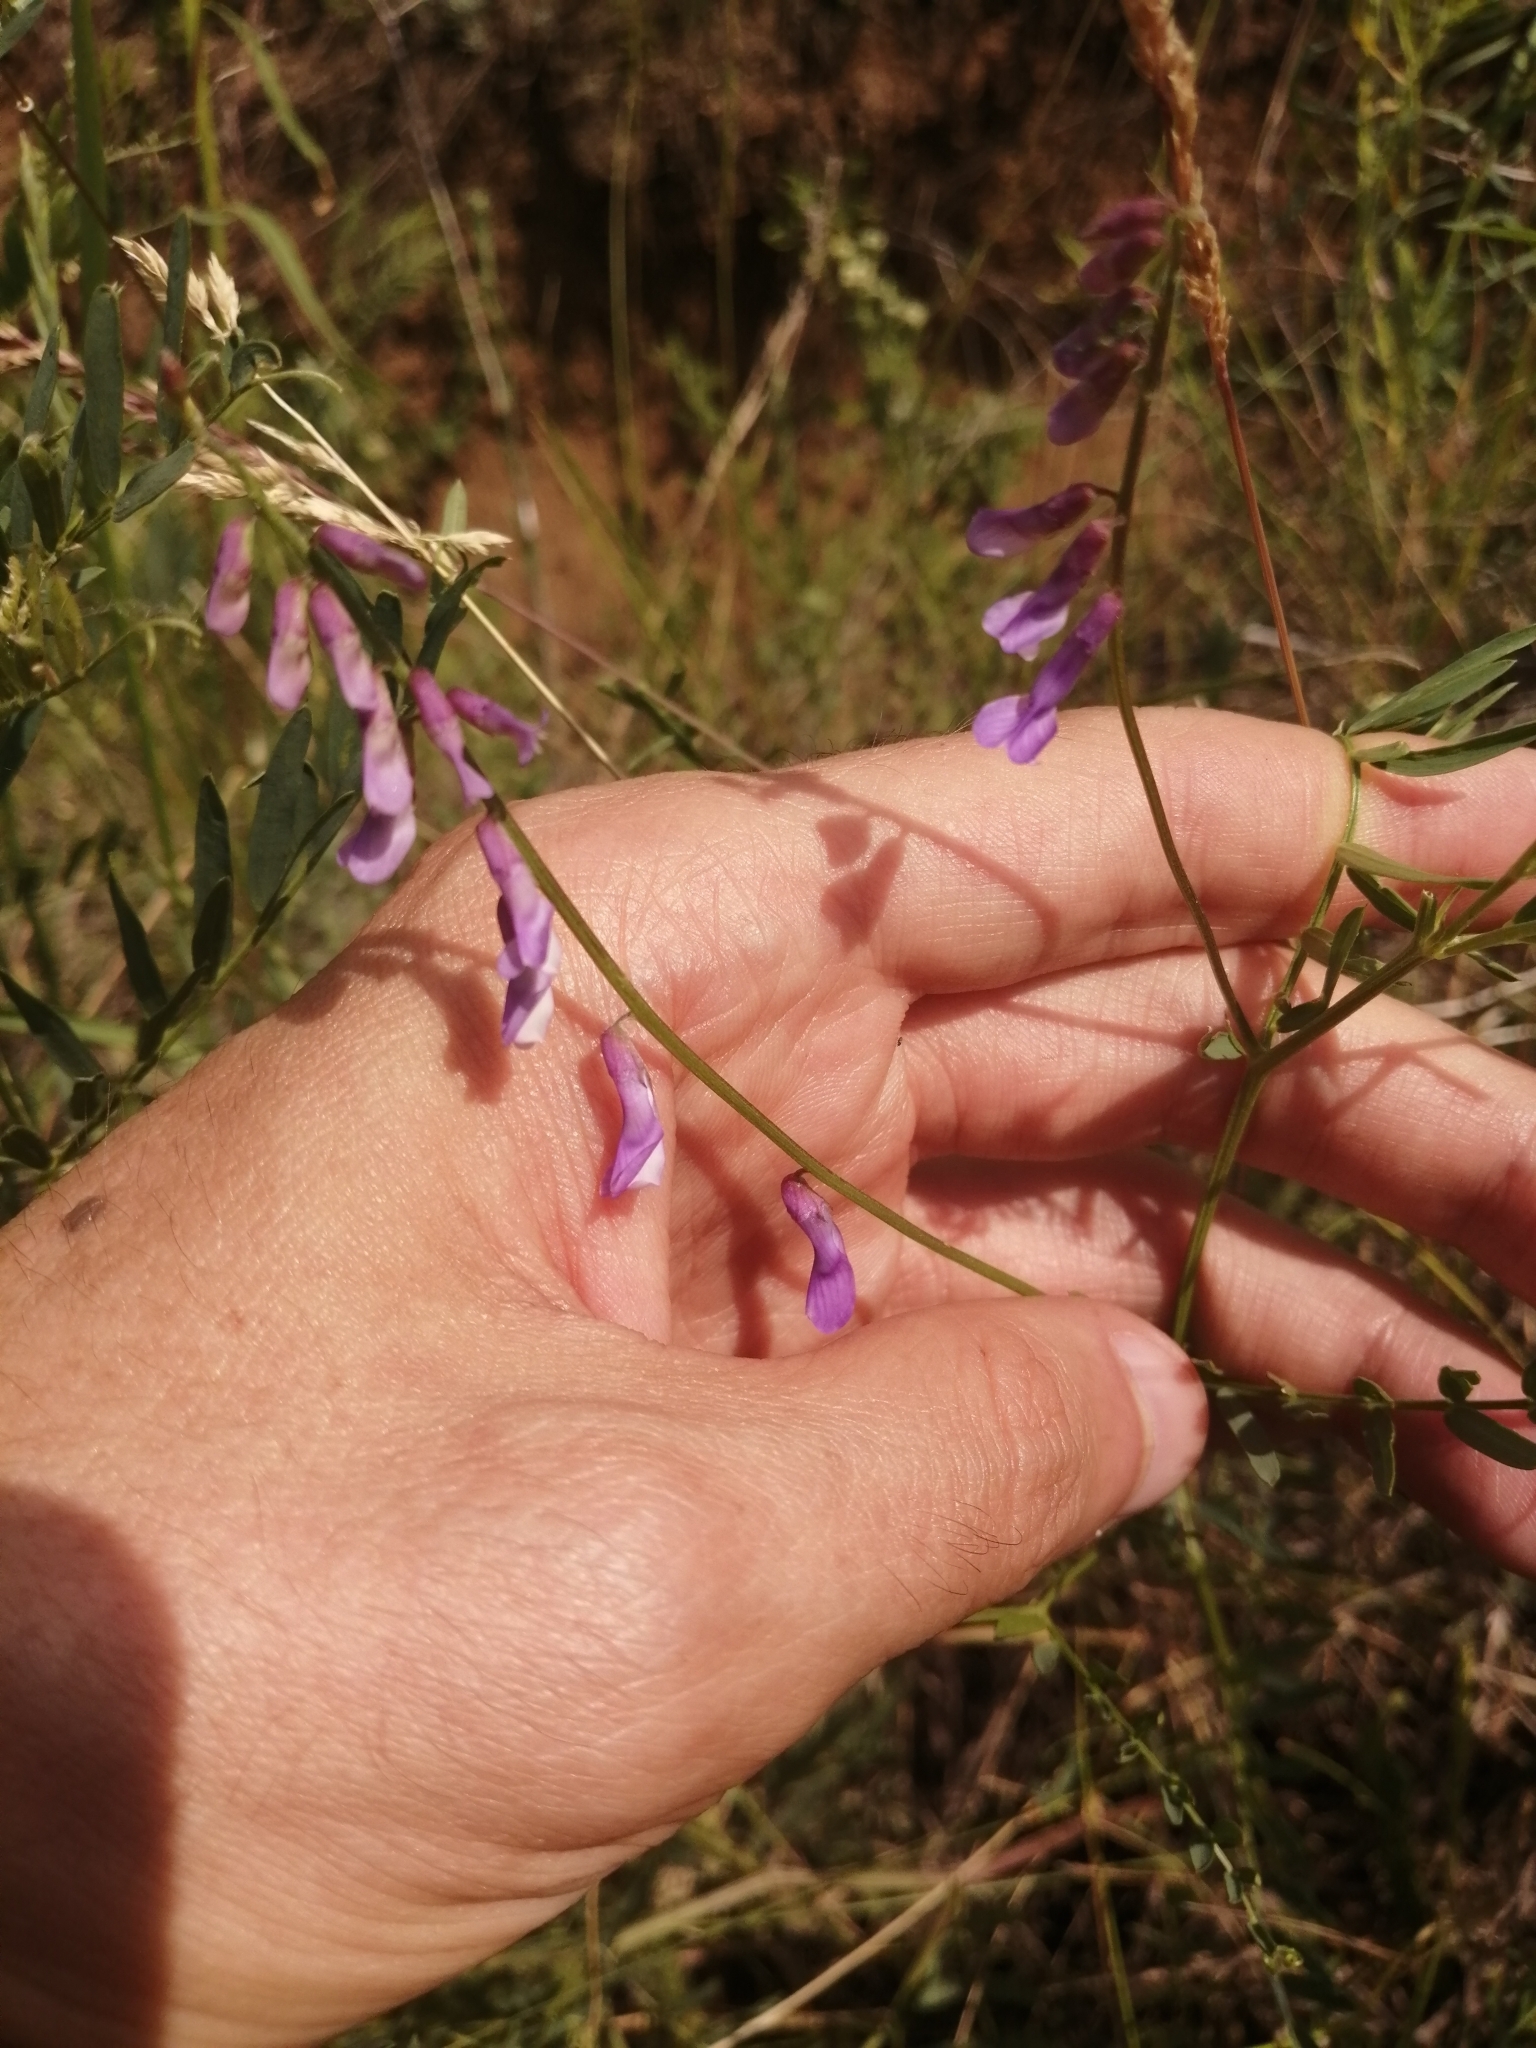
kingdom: Plantae
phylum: Tracheophyta
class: Magnoliopsida
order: Fabales
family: Fabaceae
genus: Vicia
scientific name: Vicia tenuifolia
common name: Fine-leaved vetch
